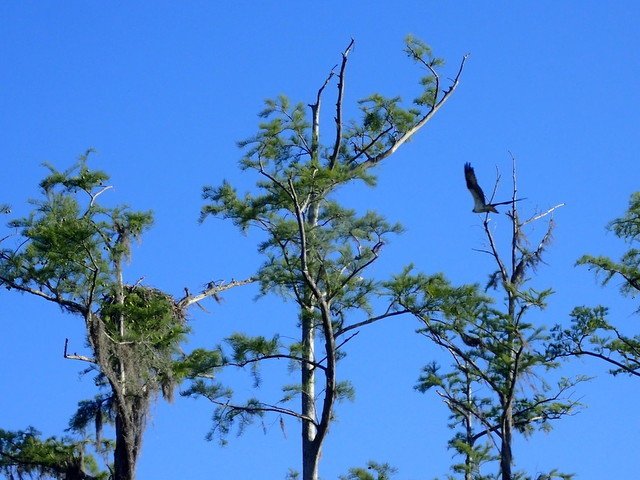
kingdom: Animalia
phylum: Chordata
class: Aves
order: Accipitriformes
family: Pandionidae
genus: Pandion
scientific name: Pandion haliaetus
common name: Osprey
